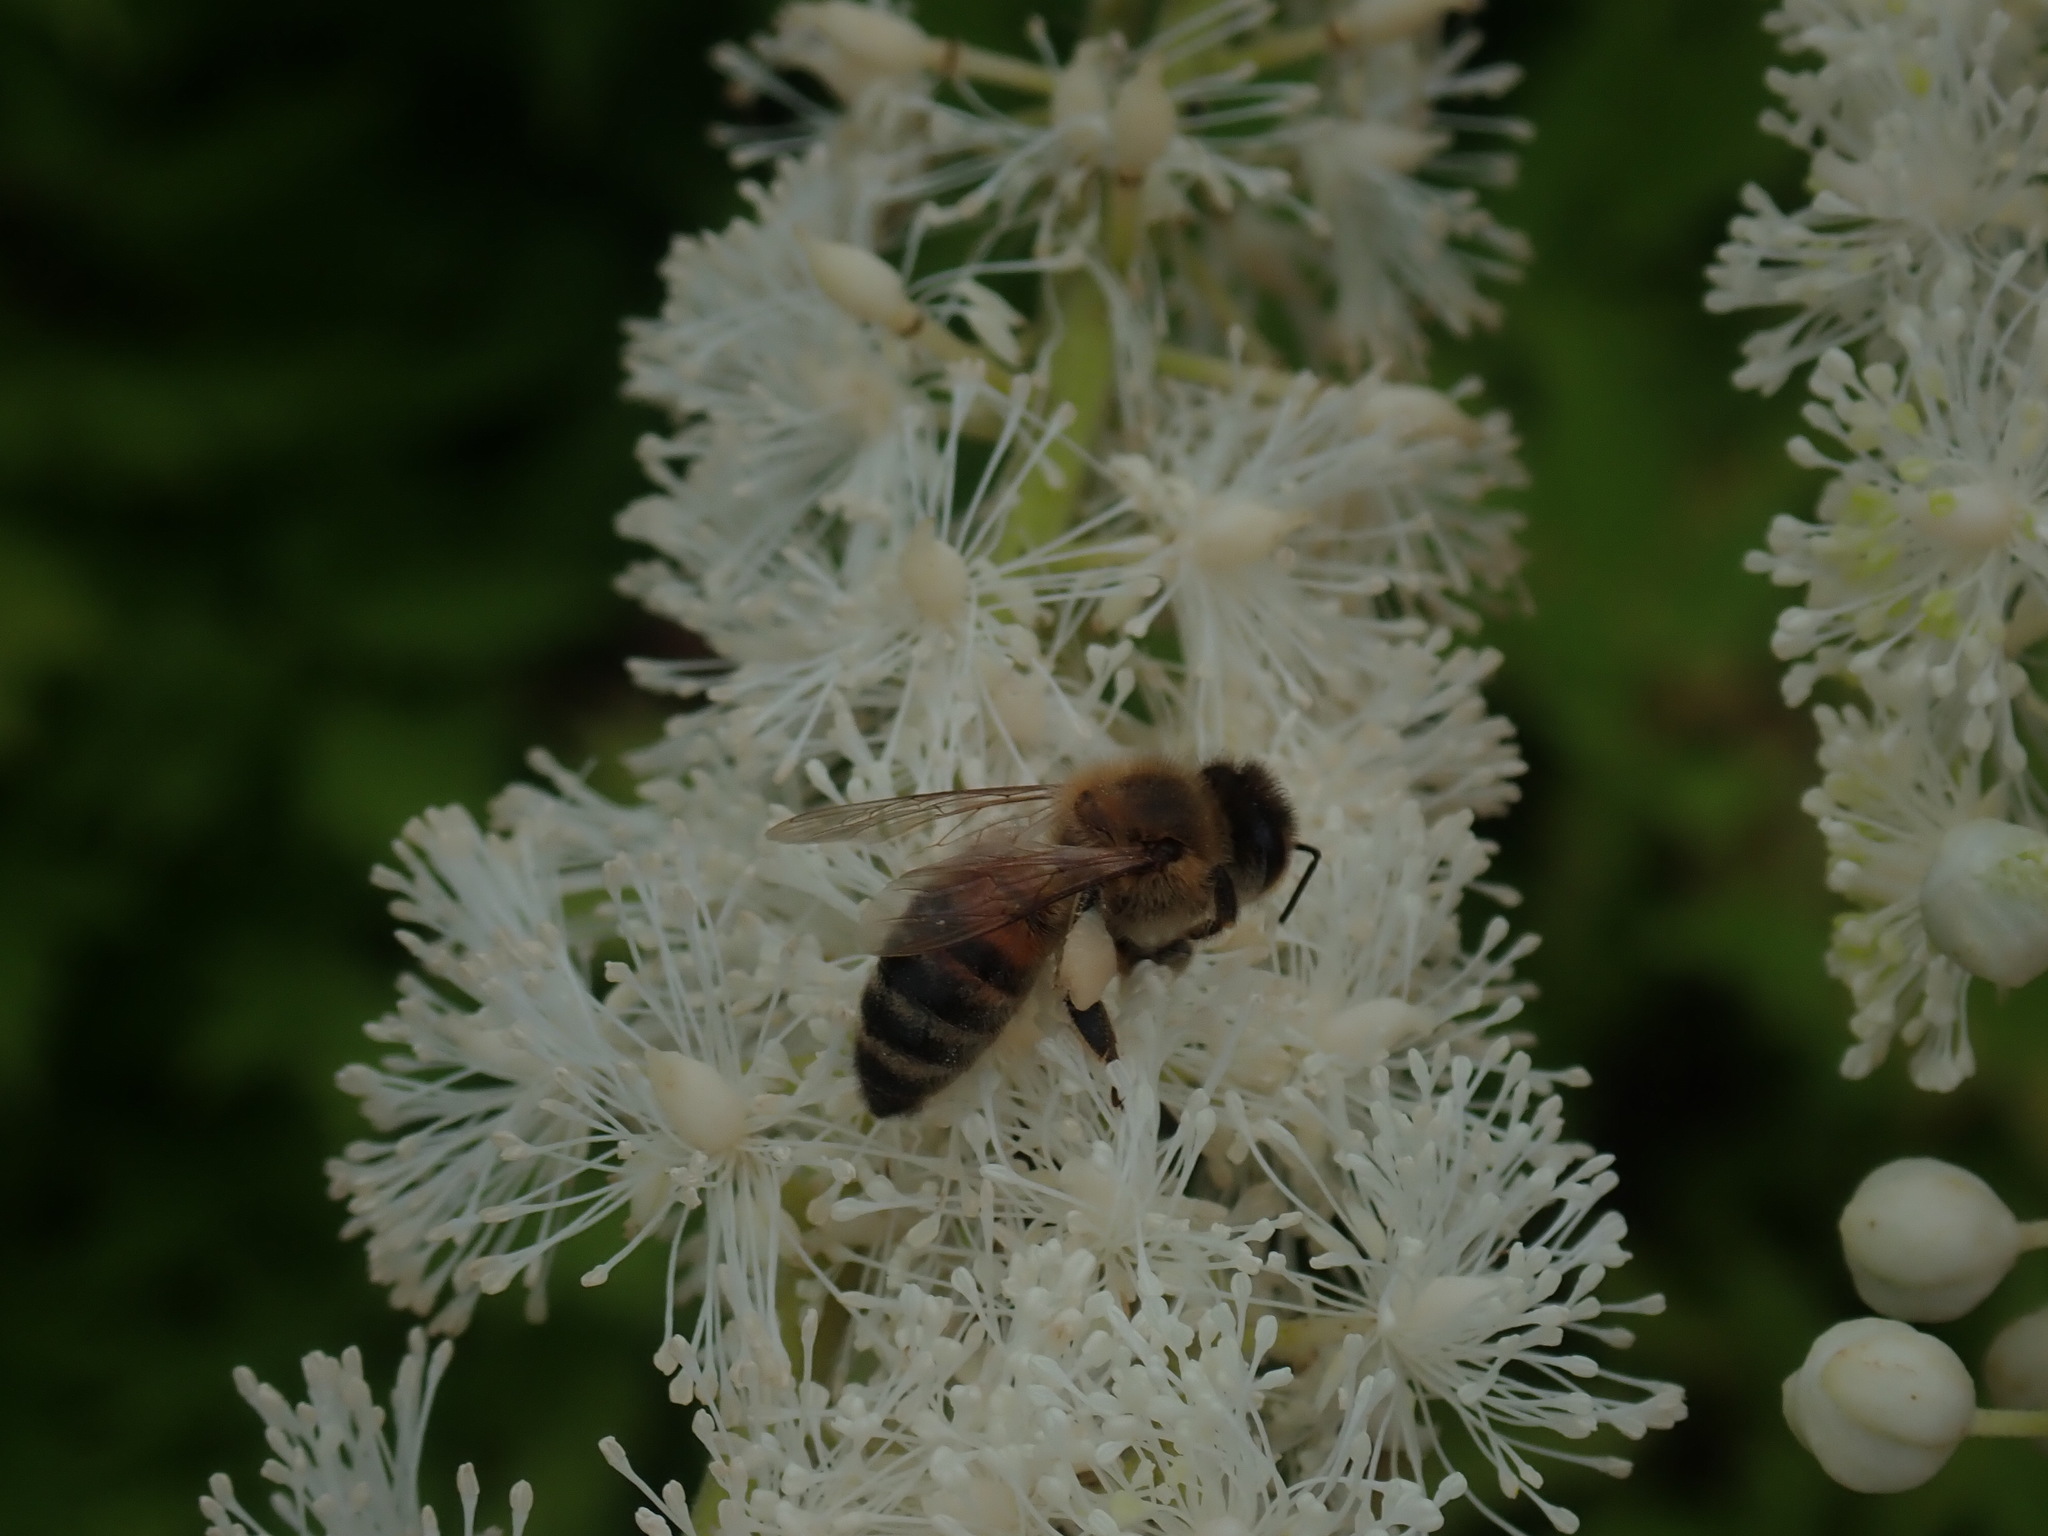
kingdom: Animalia
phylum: Arthropoda
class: Insecta
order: Hymenoptera
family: Apidae
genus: Apis
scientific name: Apis mellifera
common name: Honey bee
